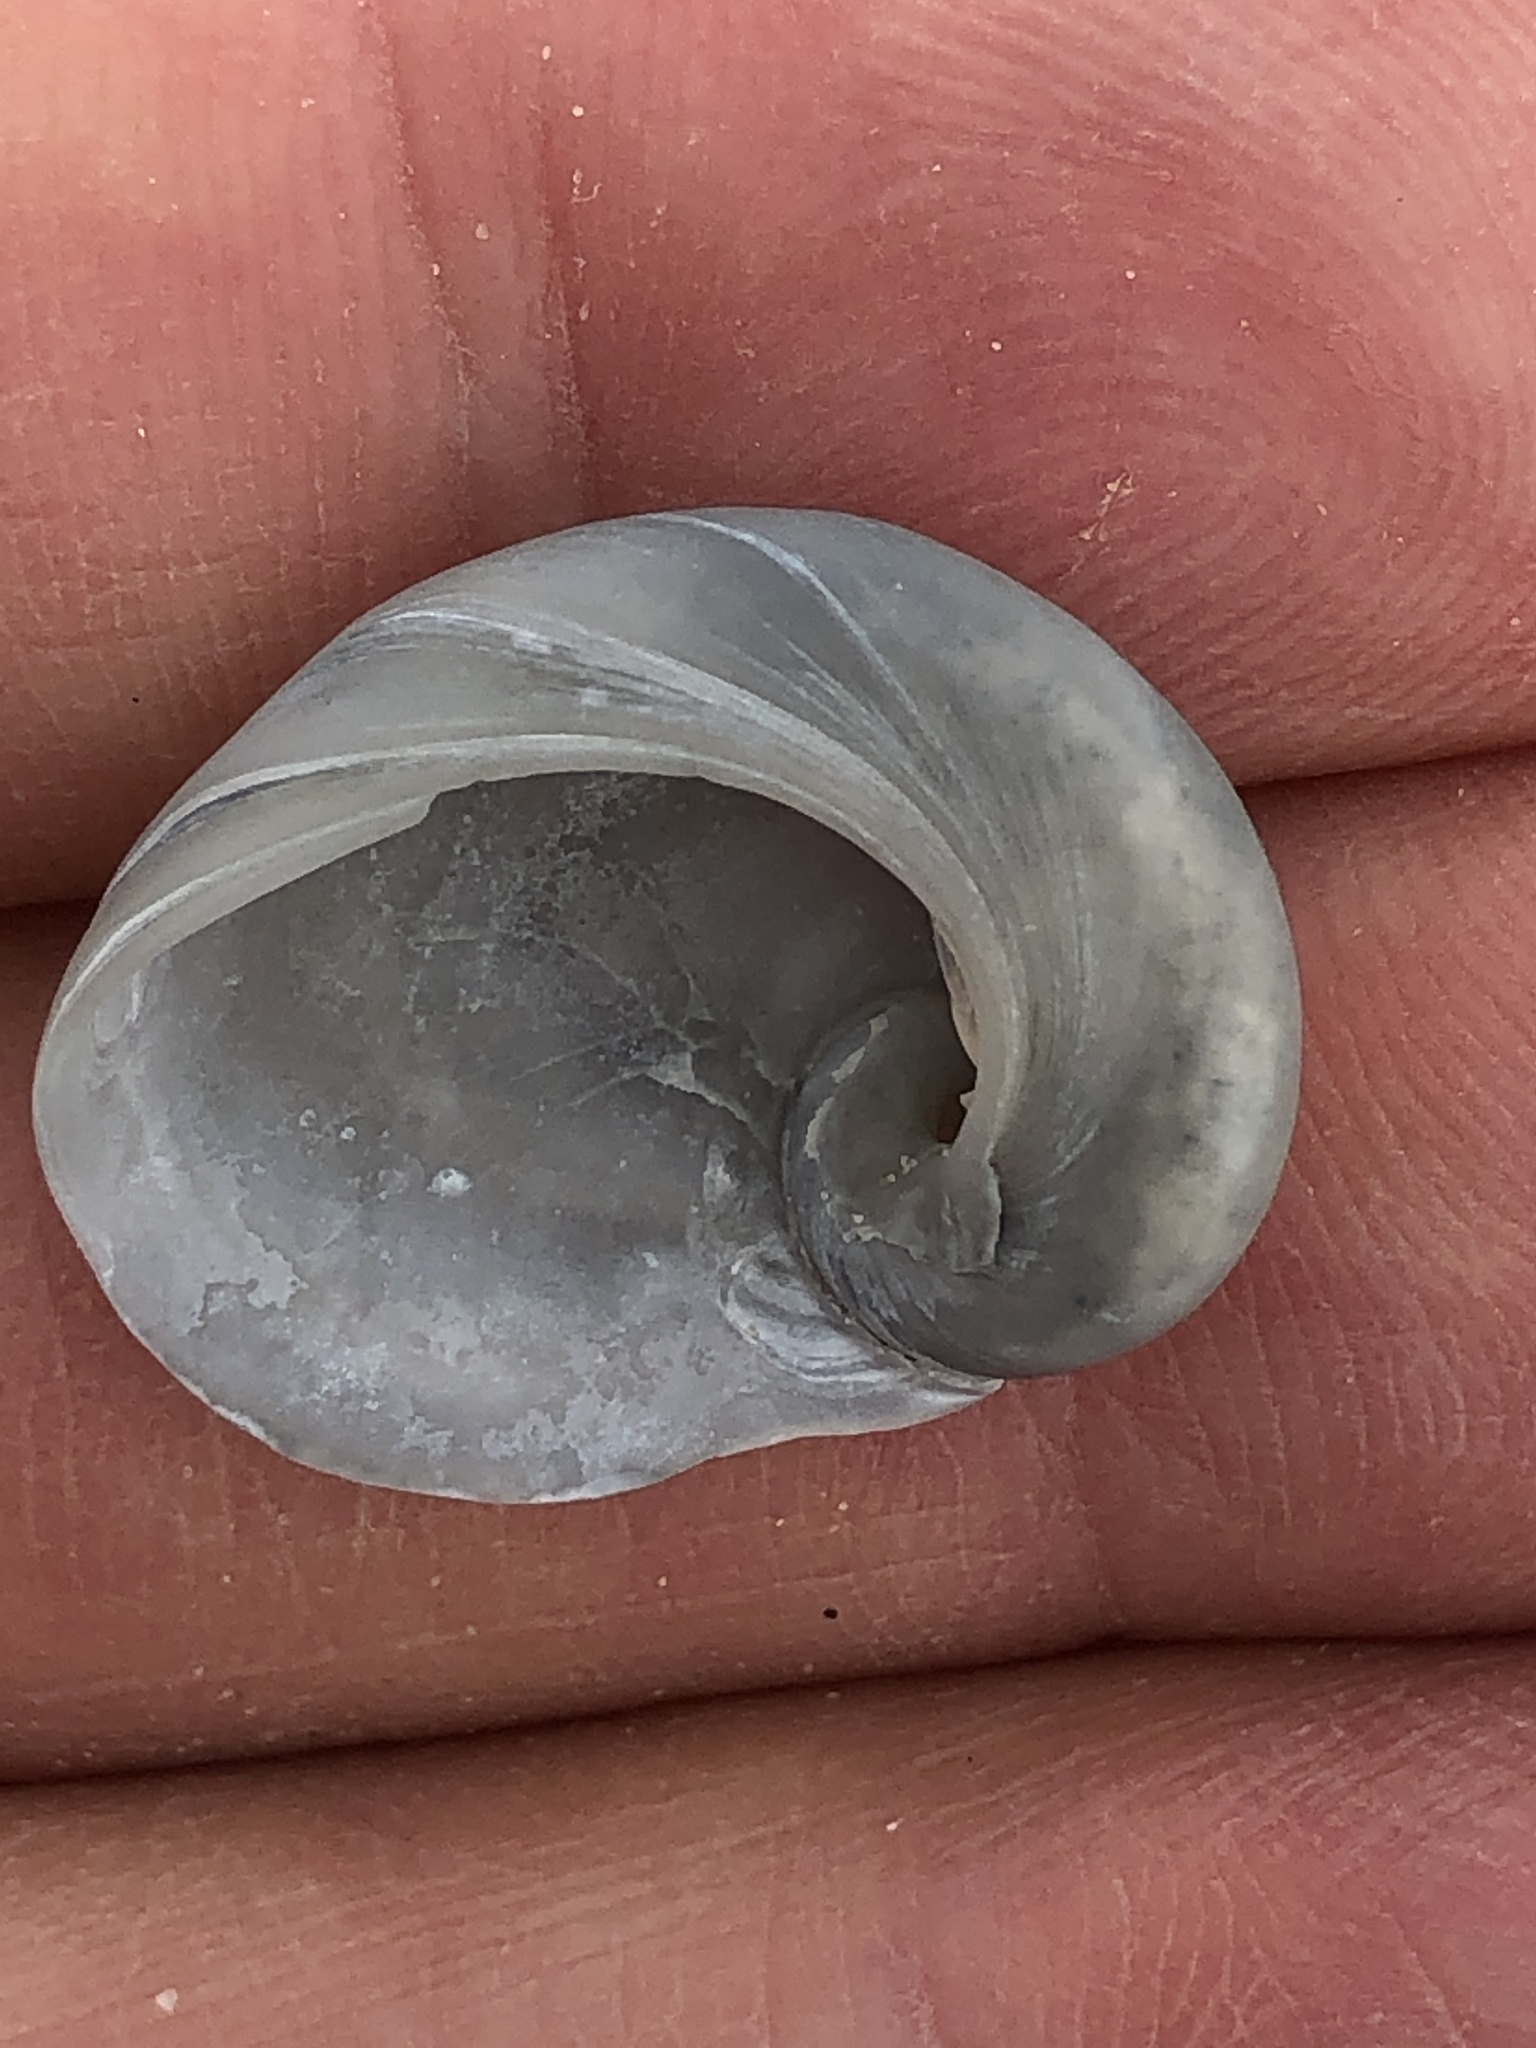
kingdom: Animalia
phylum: Mollusca
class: Gastropoda
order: Littorinimorpha
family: Naticidae
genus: Sinum
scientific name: Sinum perspectivum
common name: White baby ear
